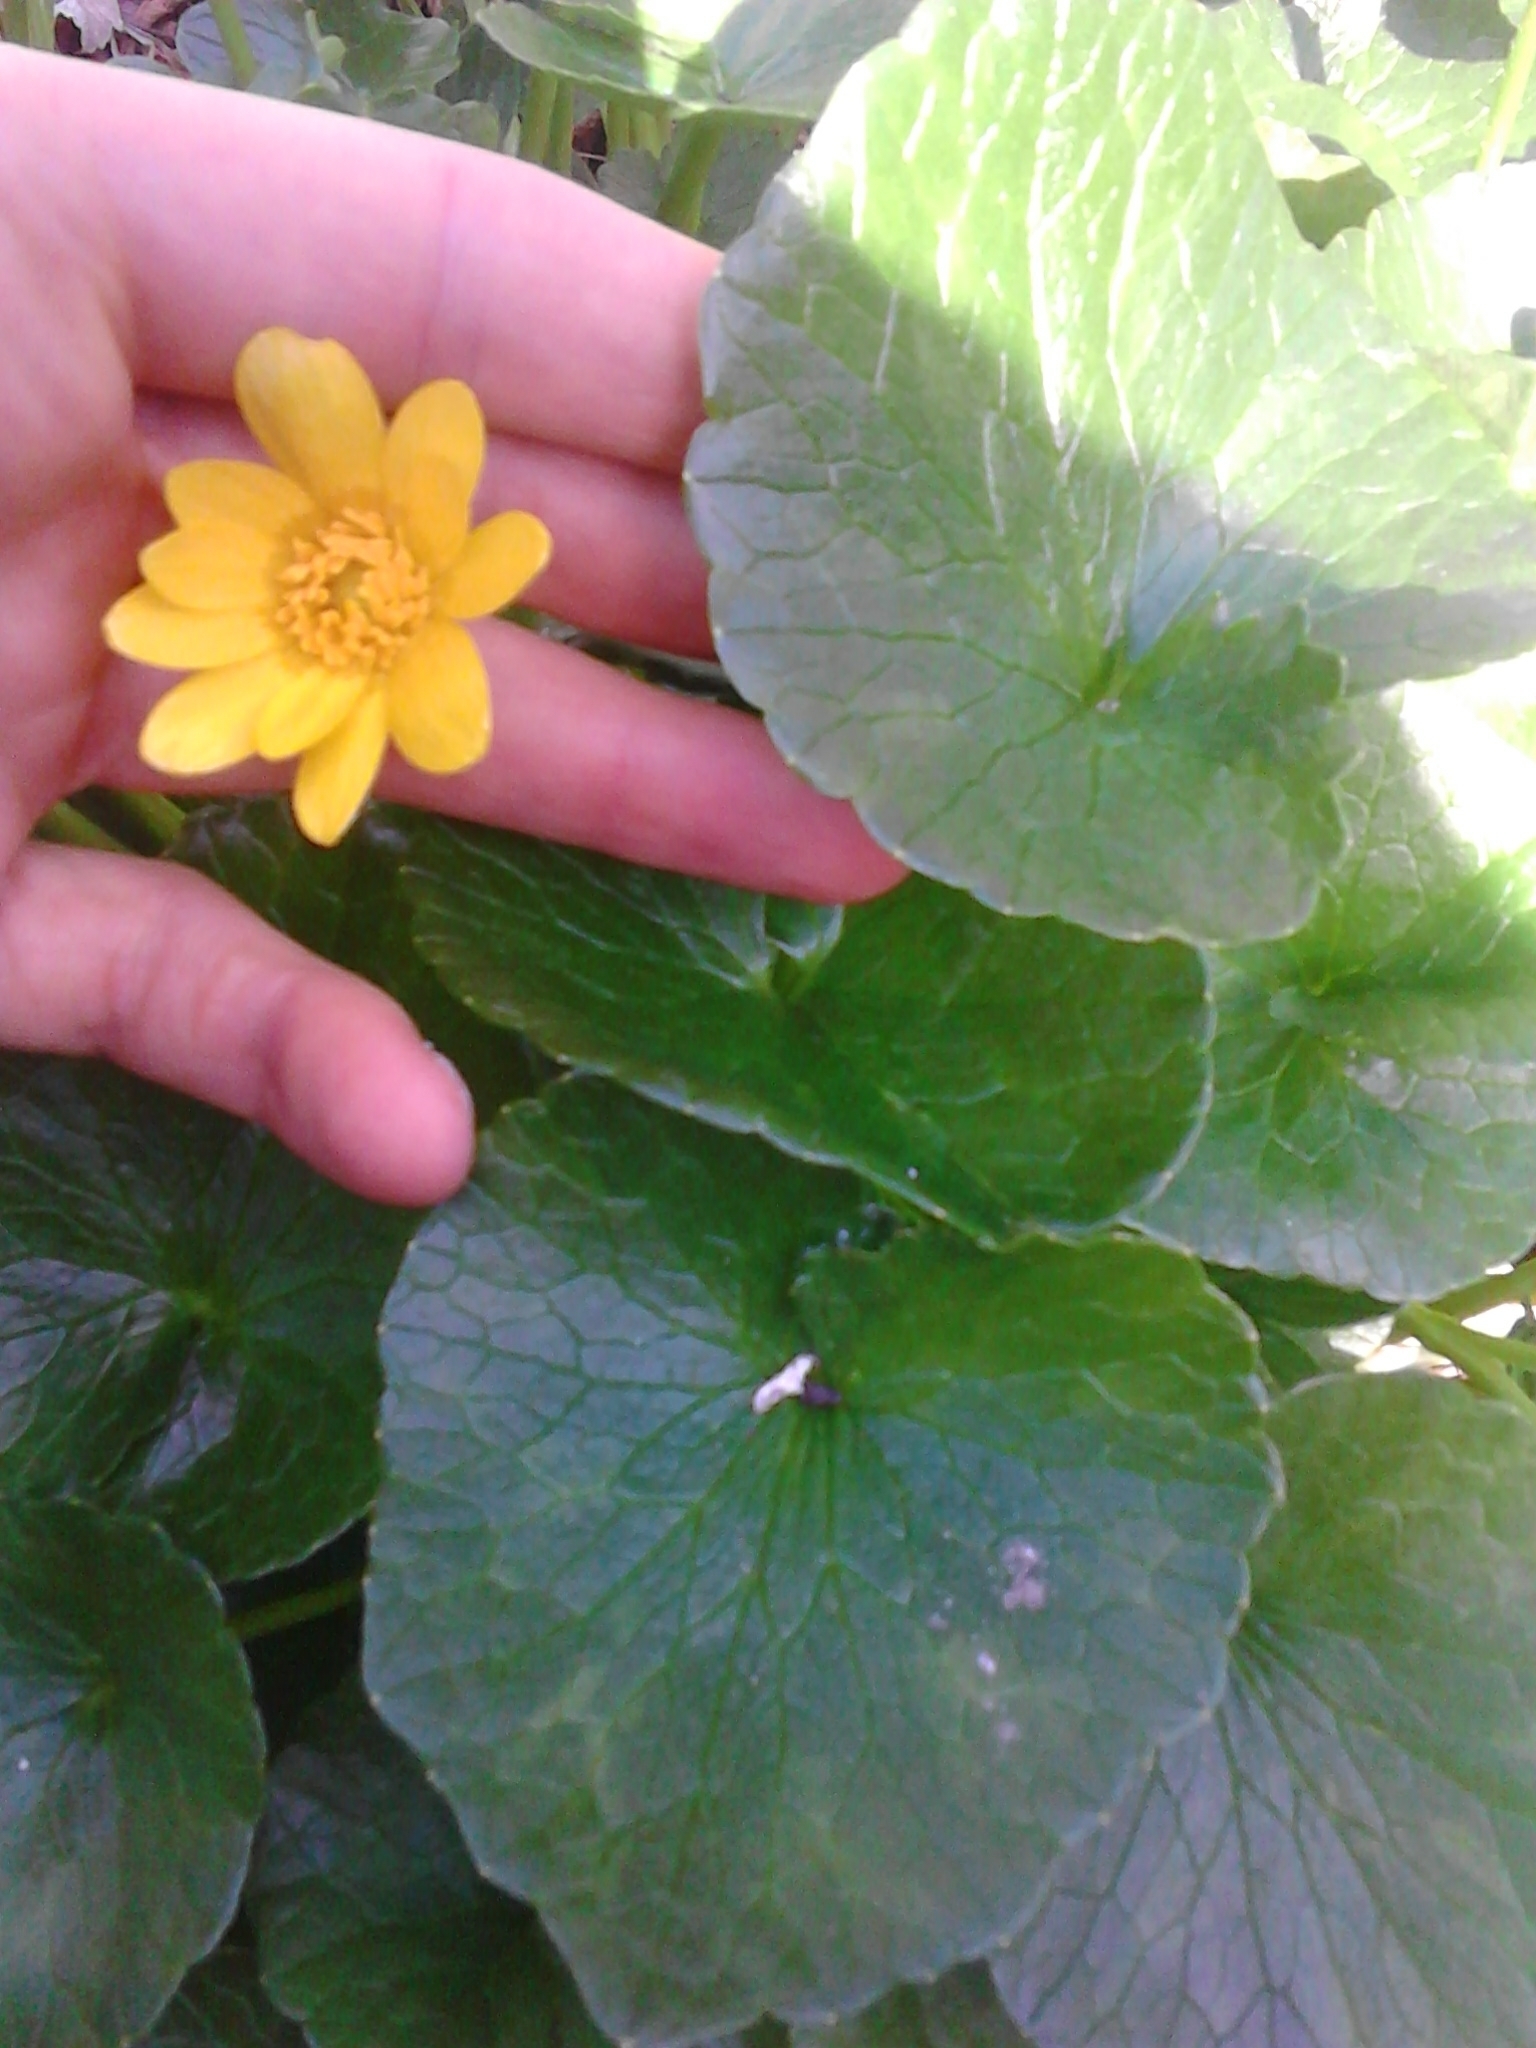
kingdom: Plantae
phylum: Tracheophyta
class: Magnoliopsida
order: Ranunculales
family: Ranunculaceae
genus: Ficaria
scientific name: Ficaria verna
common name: Lesser celandine
